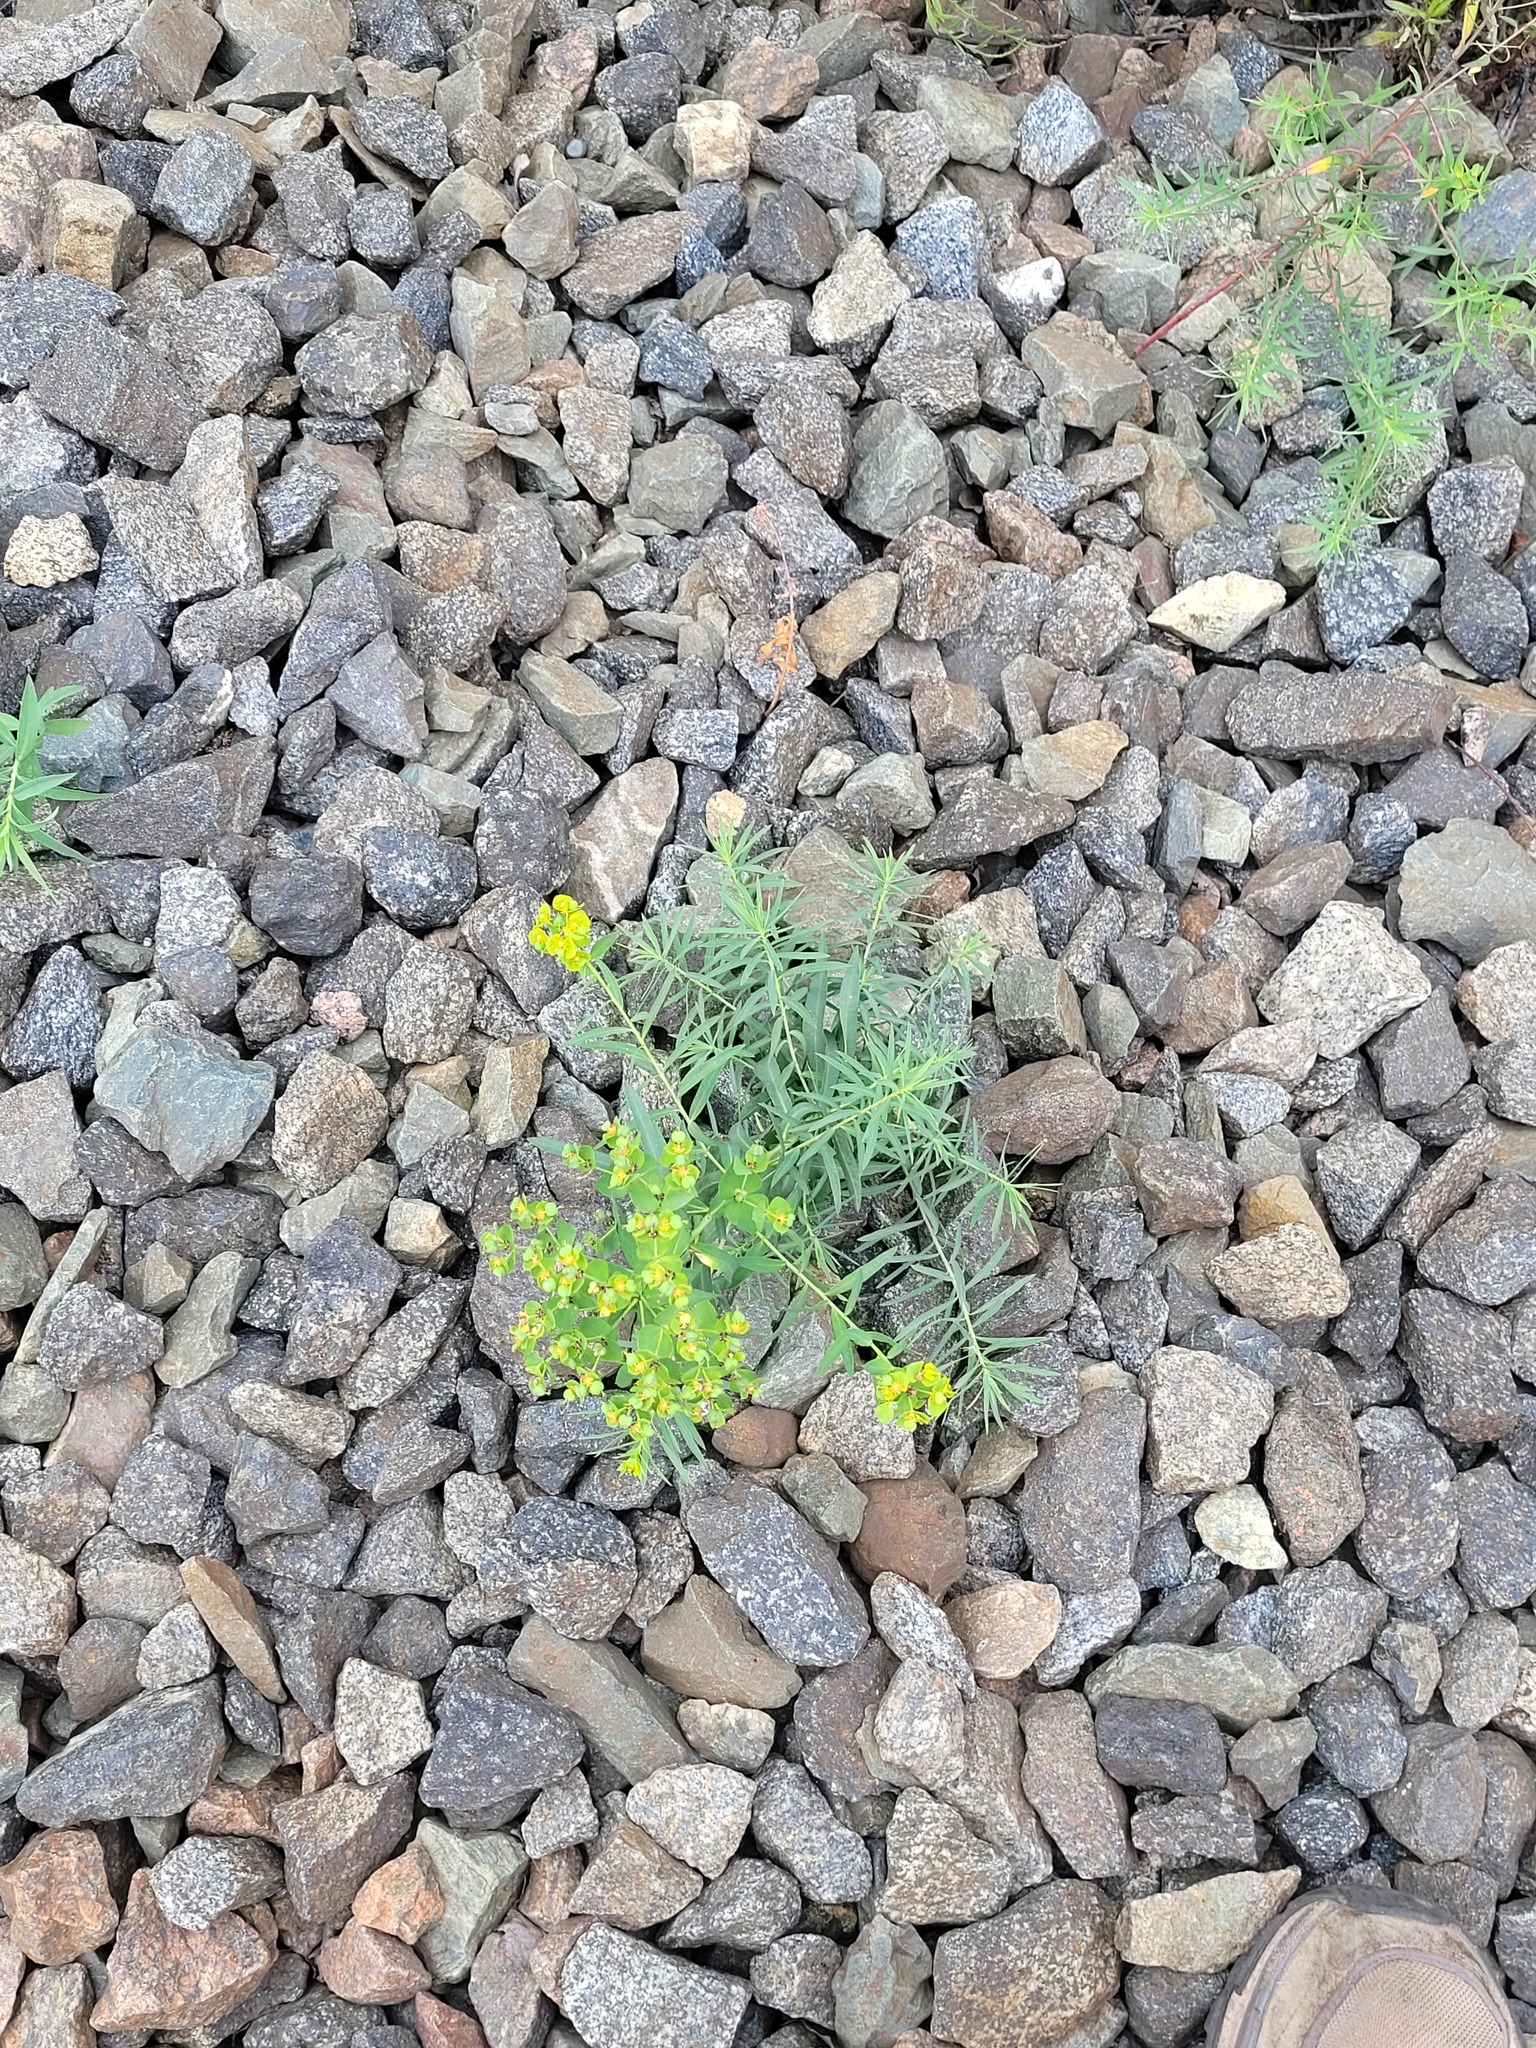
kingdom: Plantae
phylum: Tracheophyta
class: Magnoliopsida
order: Malpighiales
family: Euphorbiaceae
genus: Euphorbia
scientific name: Euphorbia virgata
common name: Leafy spurge
